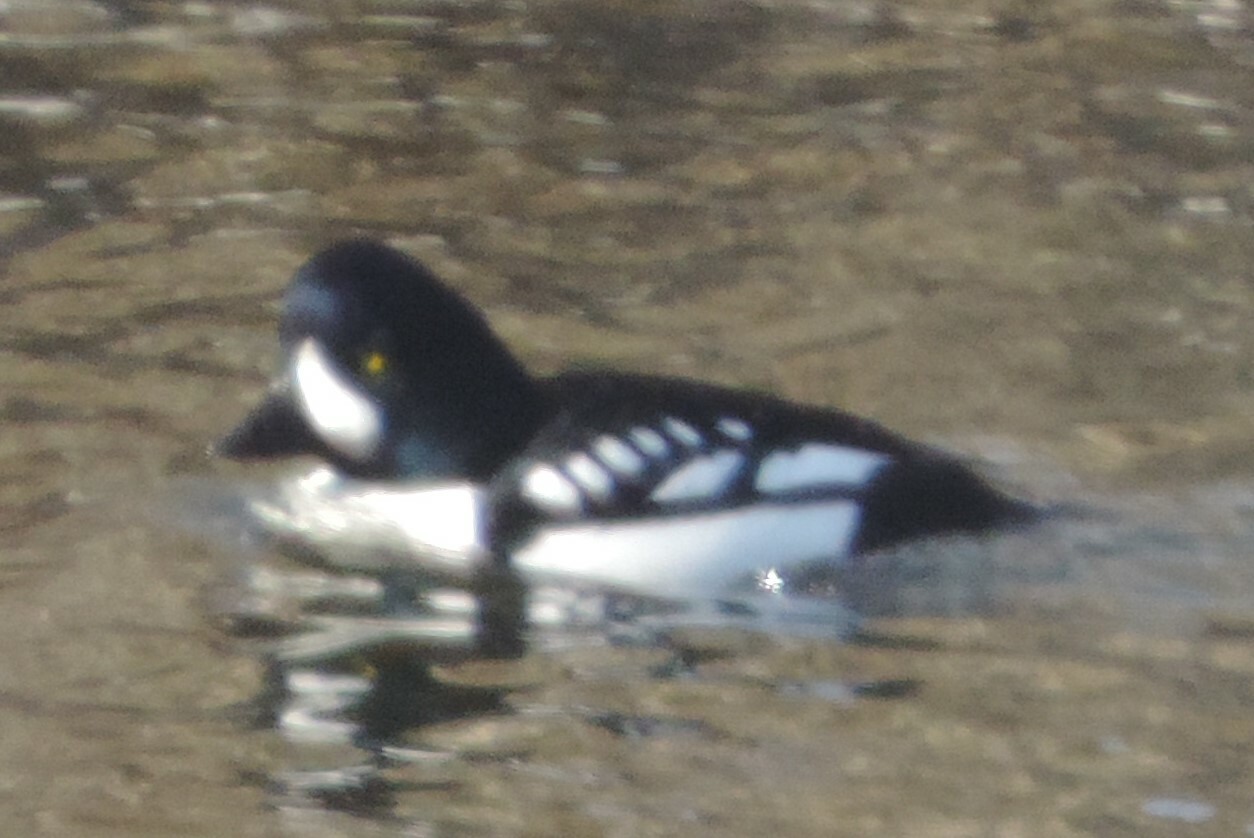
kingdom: Animalia
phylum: Chordata
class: Aves
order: Anseriformes
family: Anatidae
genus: Bucephala
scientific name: Bucephala islandica
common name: Barrow's goldeneye
